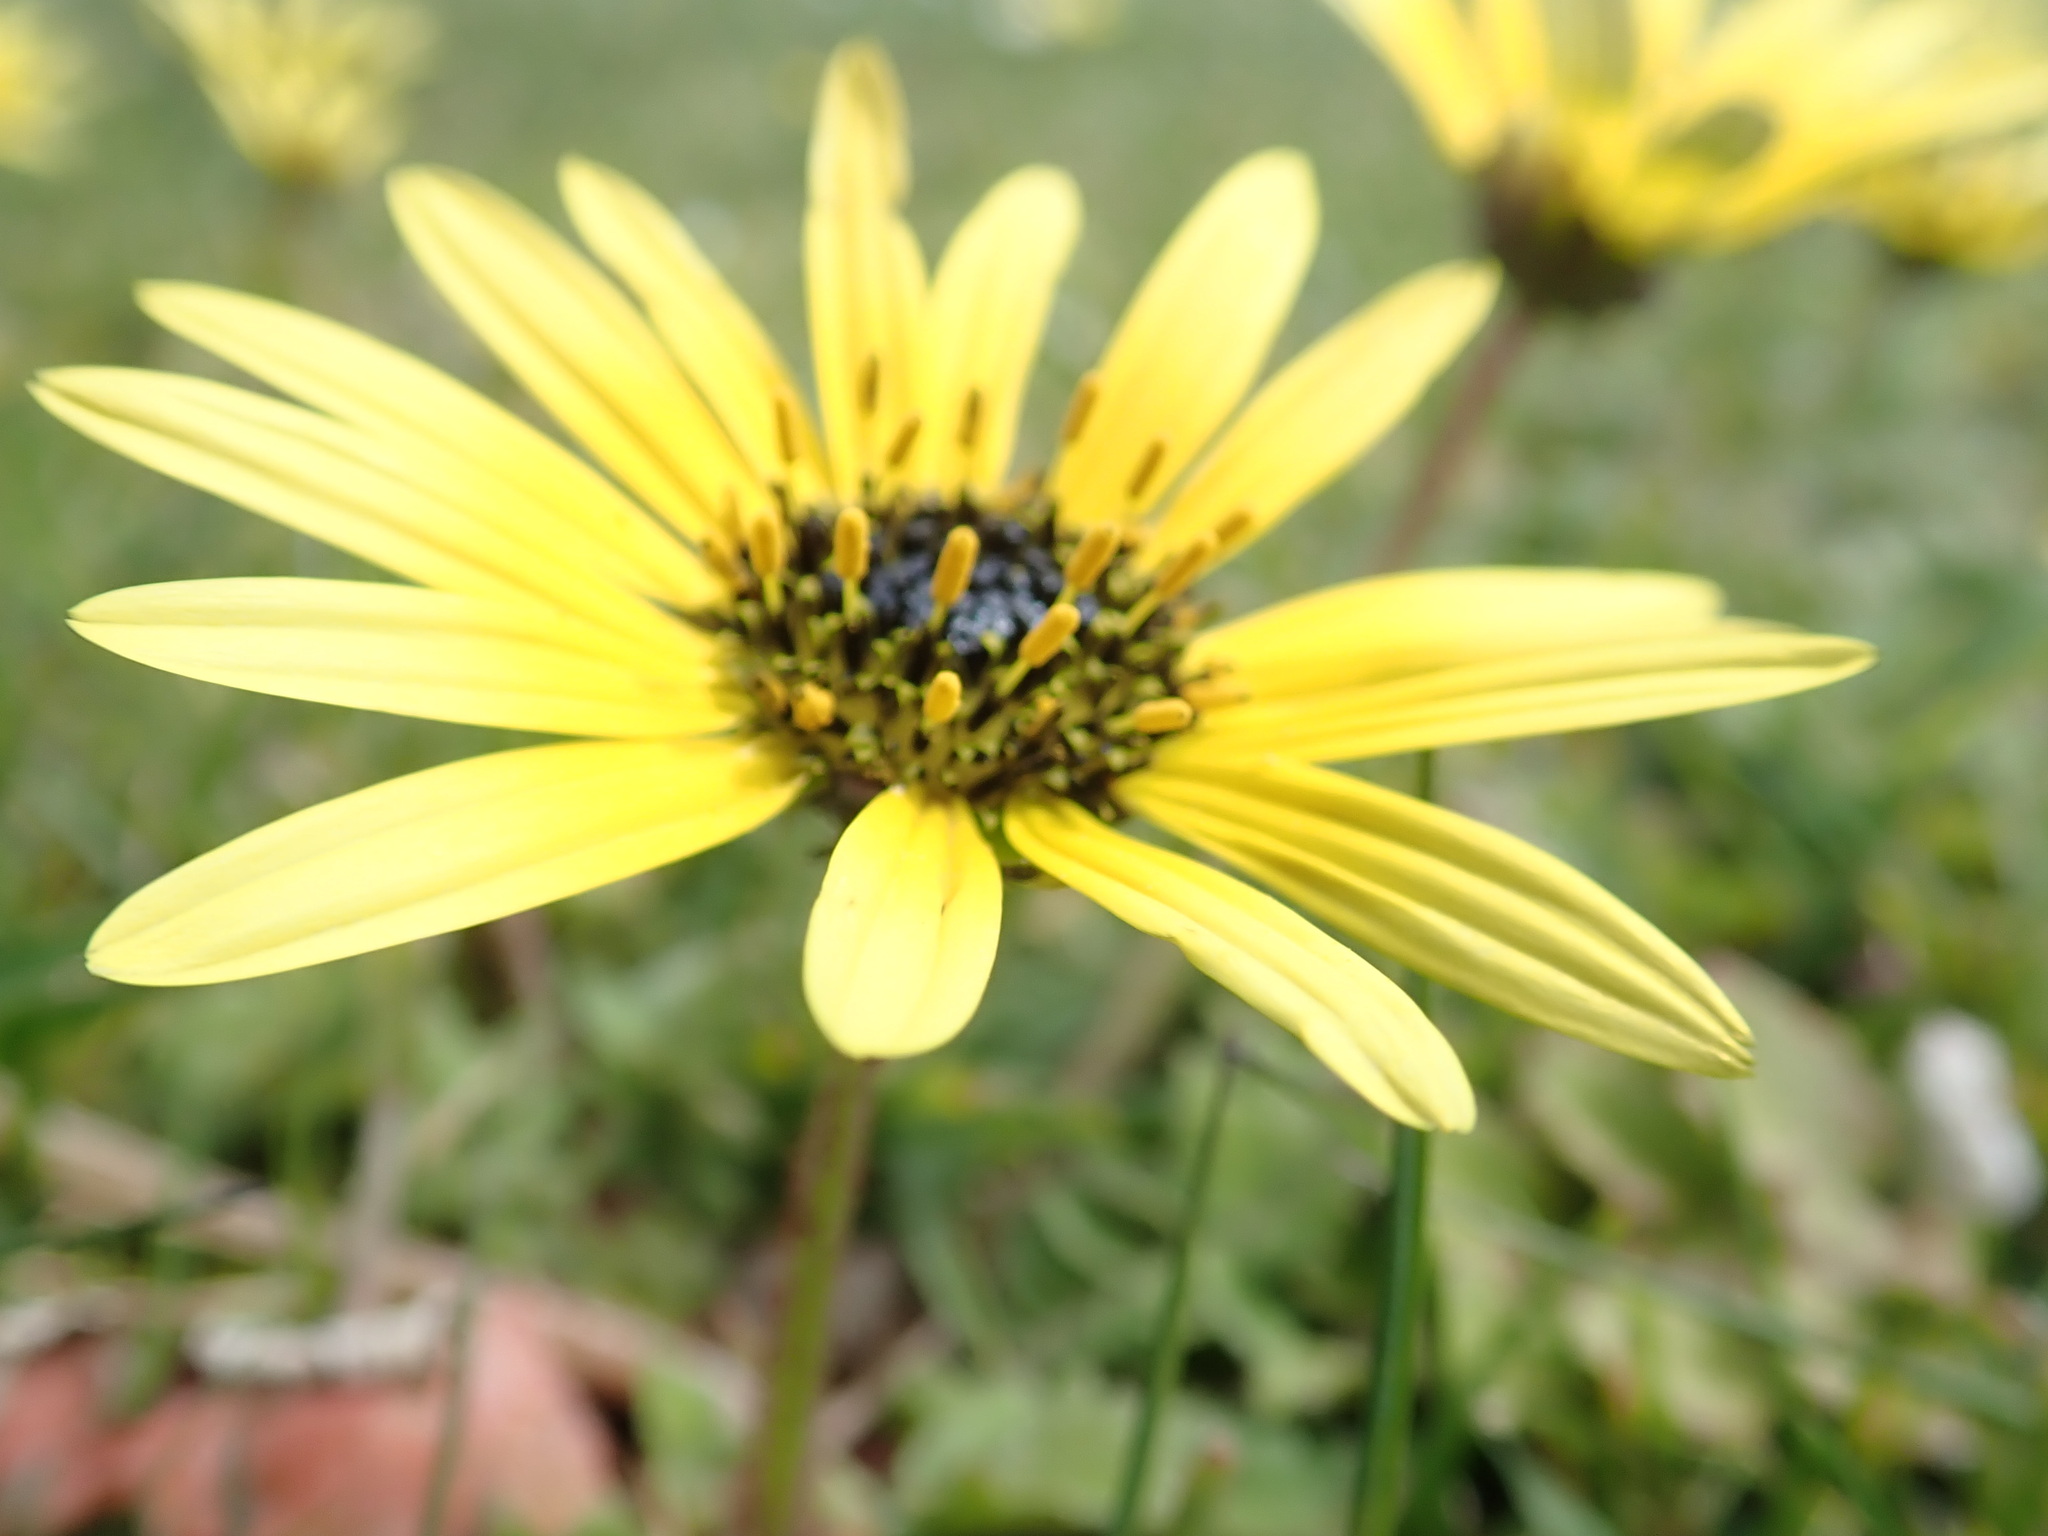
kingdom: Plantae
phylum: Tracheophyta
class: Magnoliopsida
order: Asterales
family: Asteraceae
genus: Arctotheca
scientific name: Arctotheca calendula
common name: Capeweed
